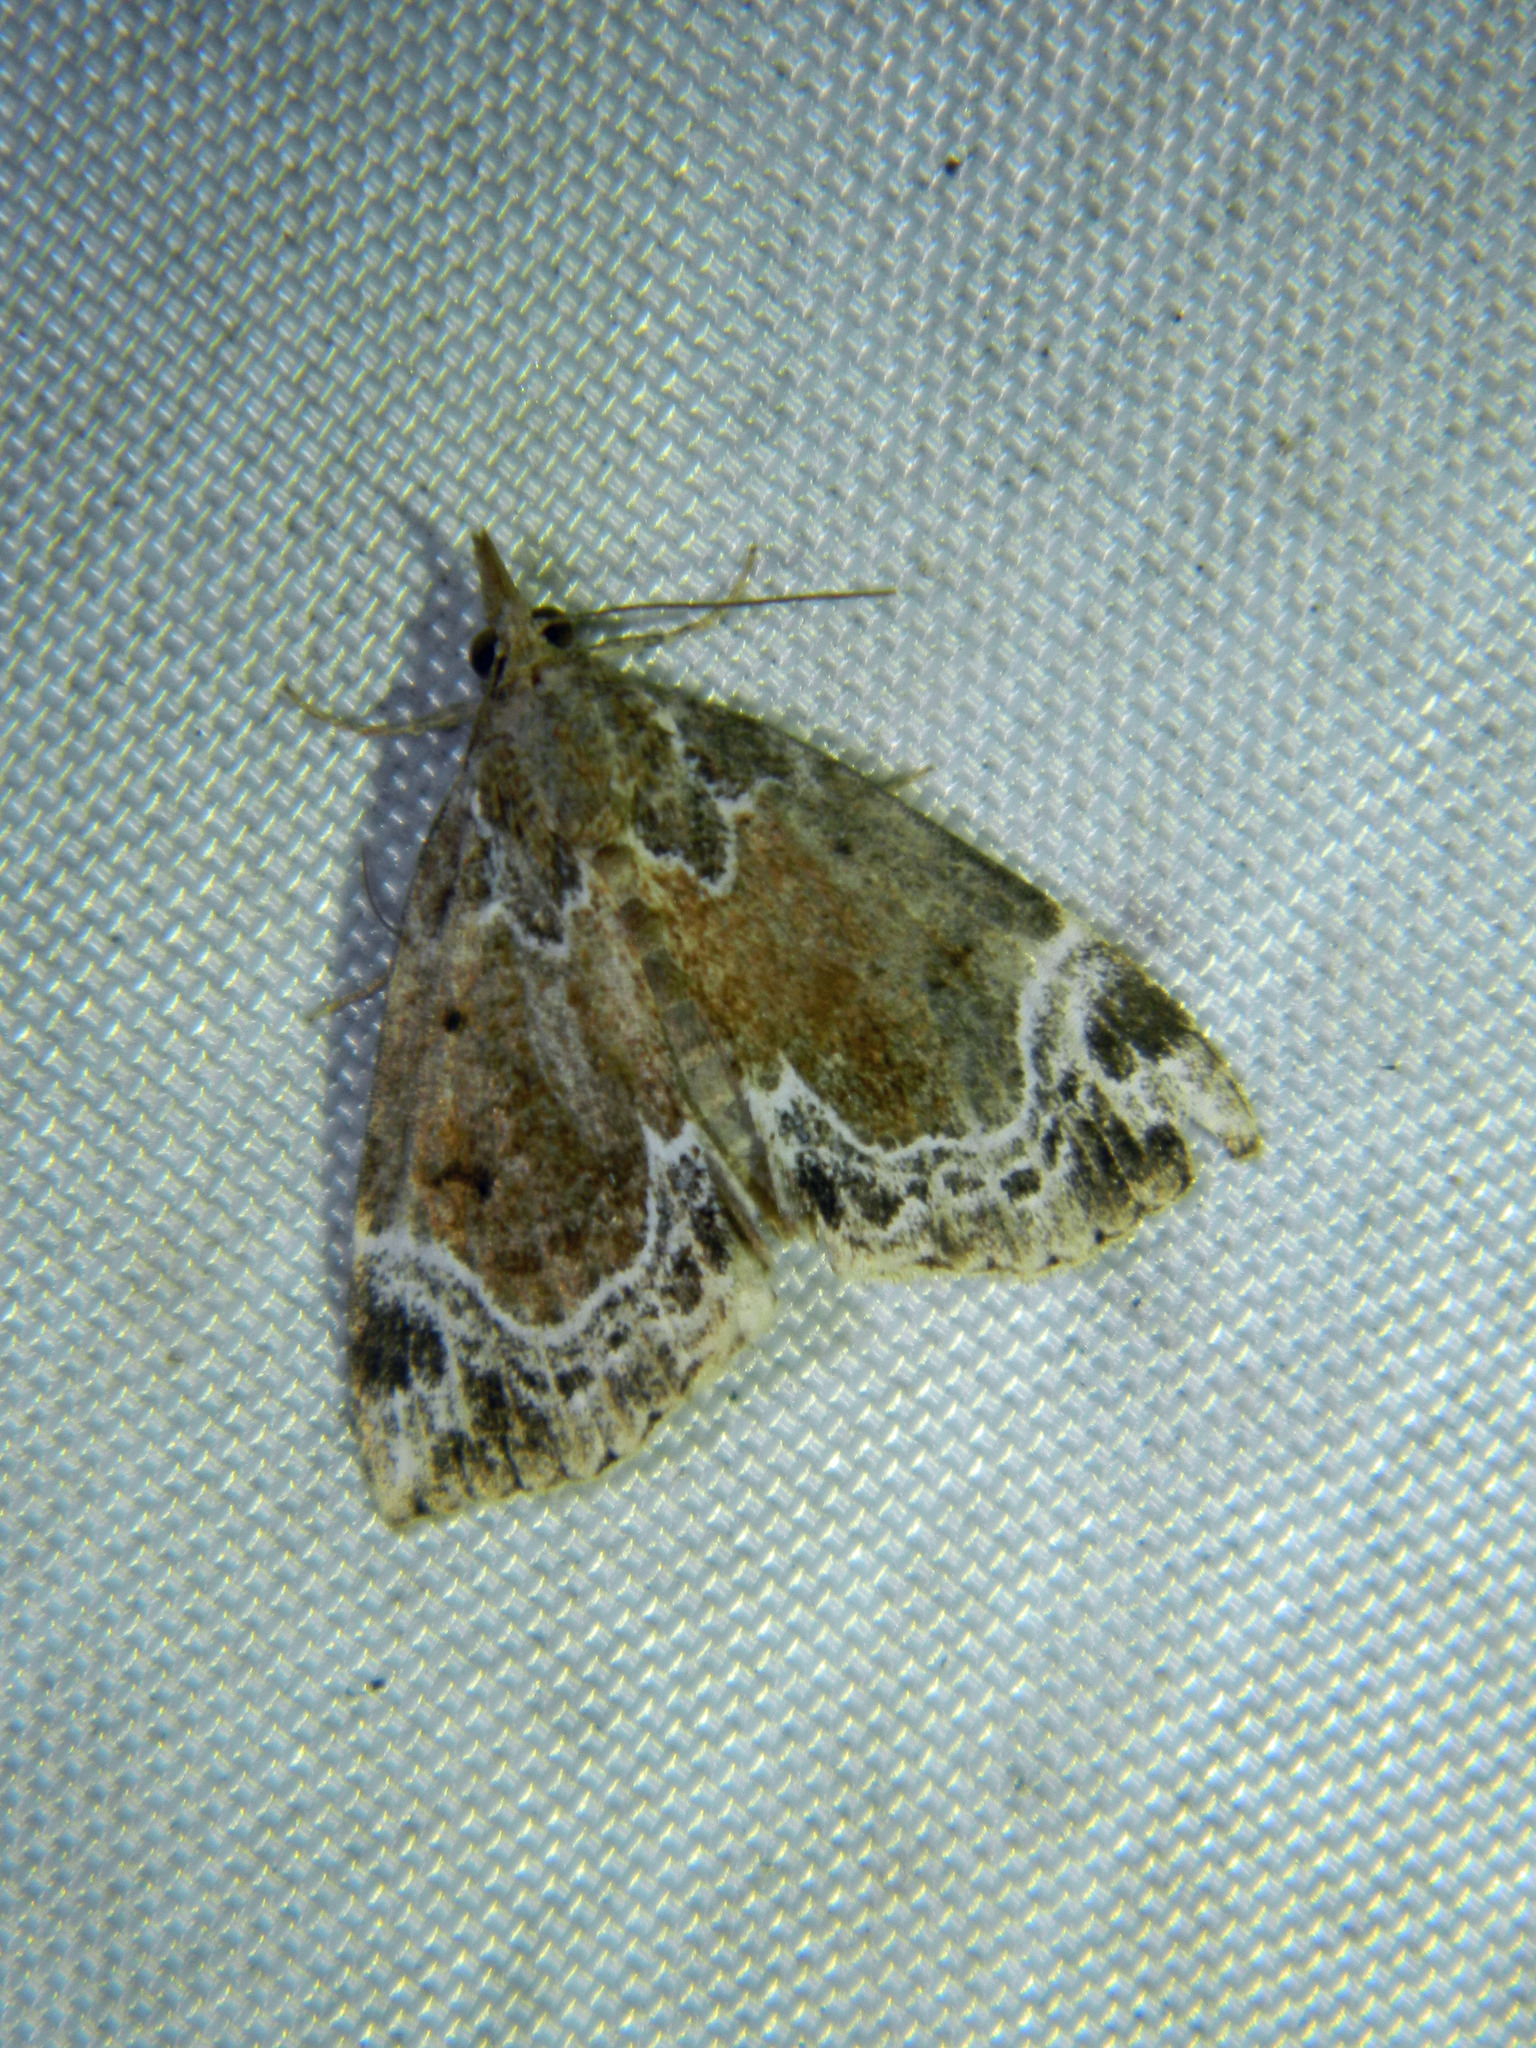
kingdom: Animalia
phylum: Arthropoda
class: Insecta
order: Lepidoptera
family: Erebidae
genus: Hypena
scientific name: Hypena abalienalis
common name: White-lined snout
